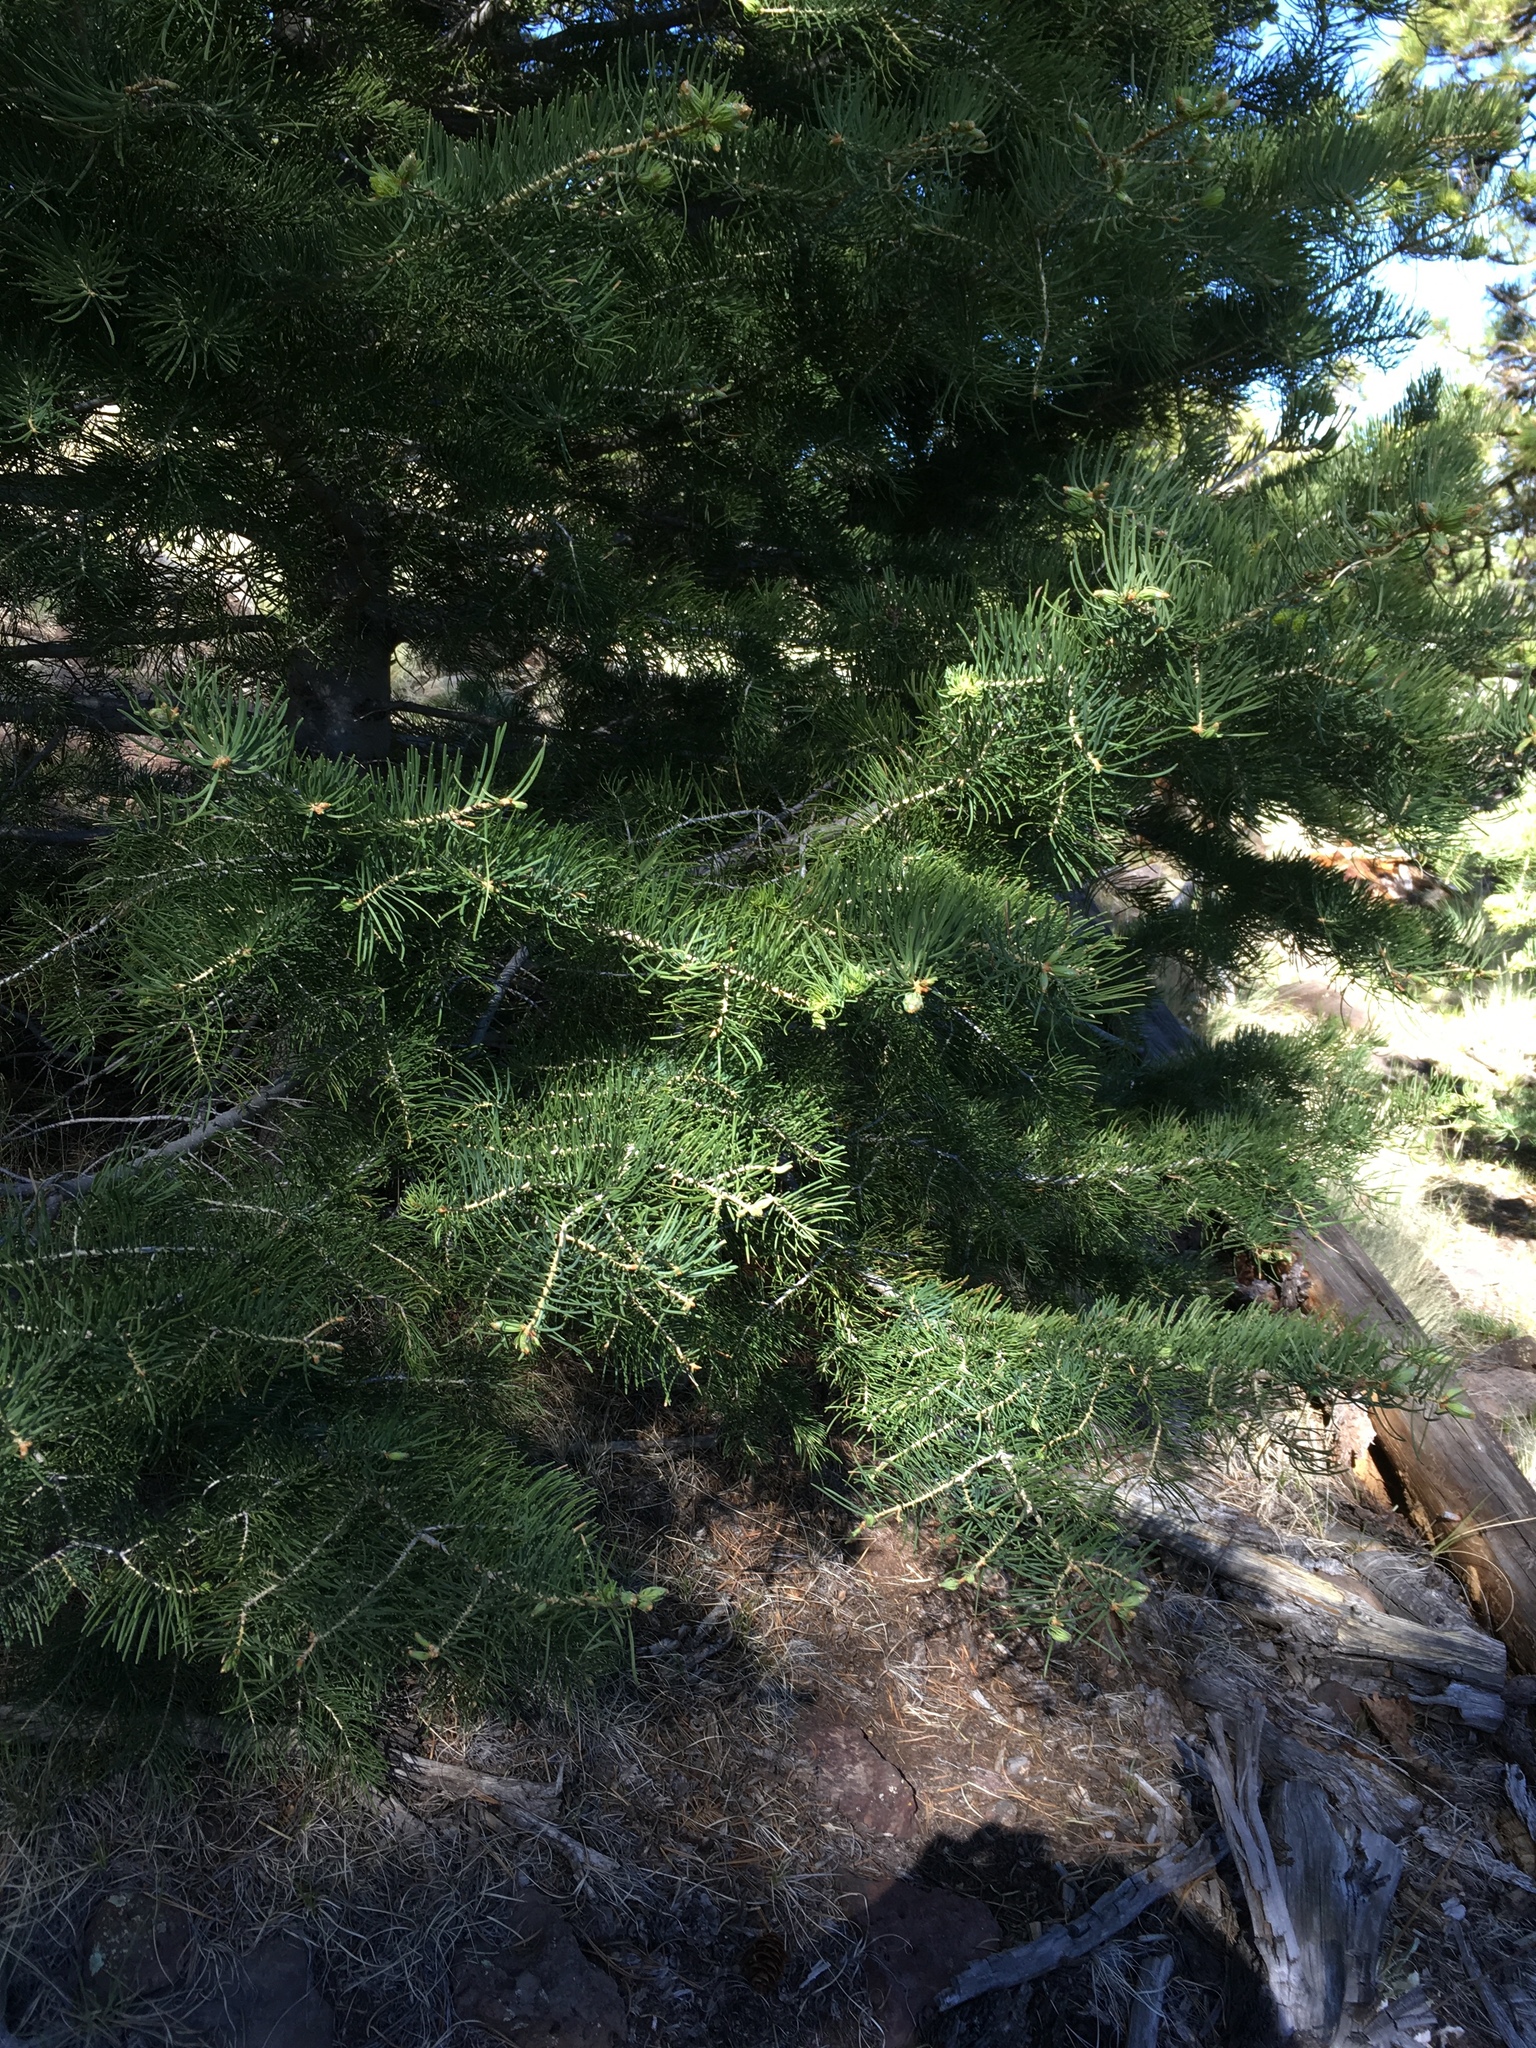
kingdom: Plantae
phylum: Tracheophyta
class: Pinopsida
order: Pinales
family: Pinaceae
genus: Pseudotsuga
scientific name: Pseudotsuga menziesii
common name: Douglas fir
